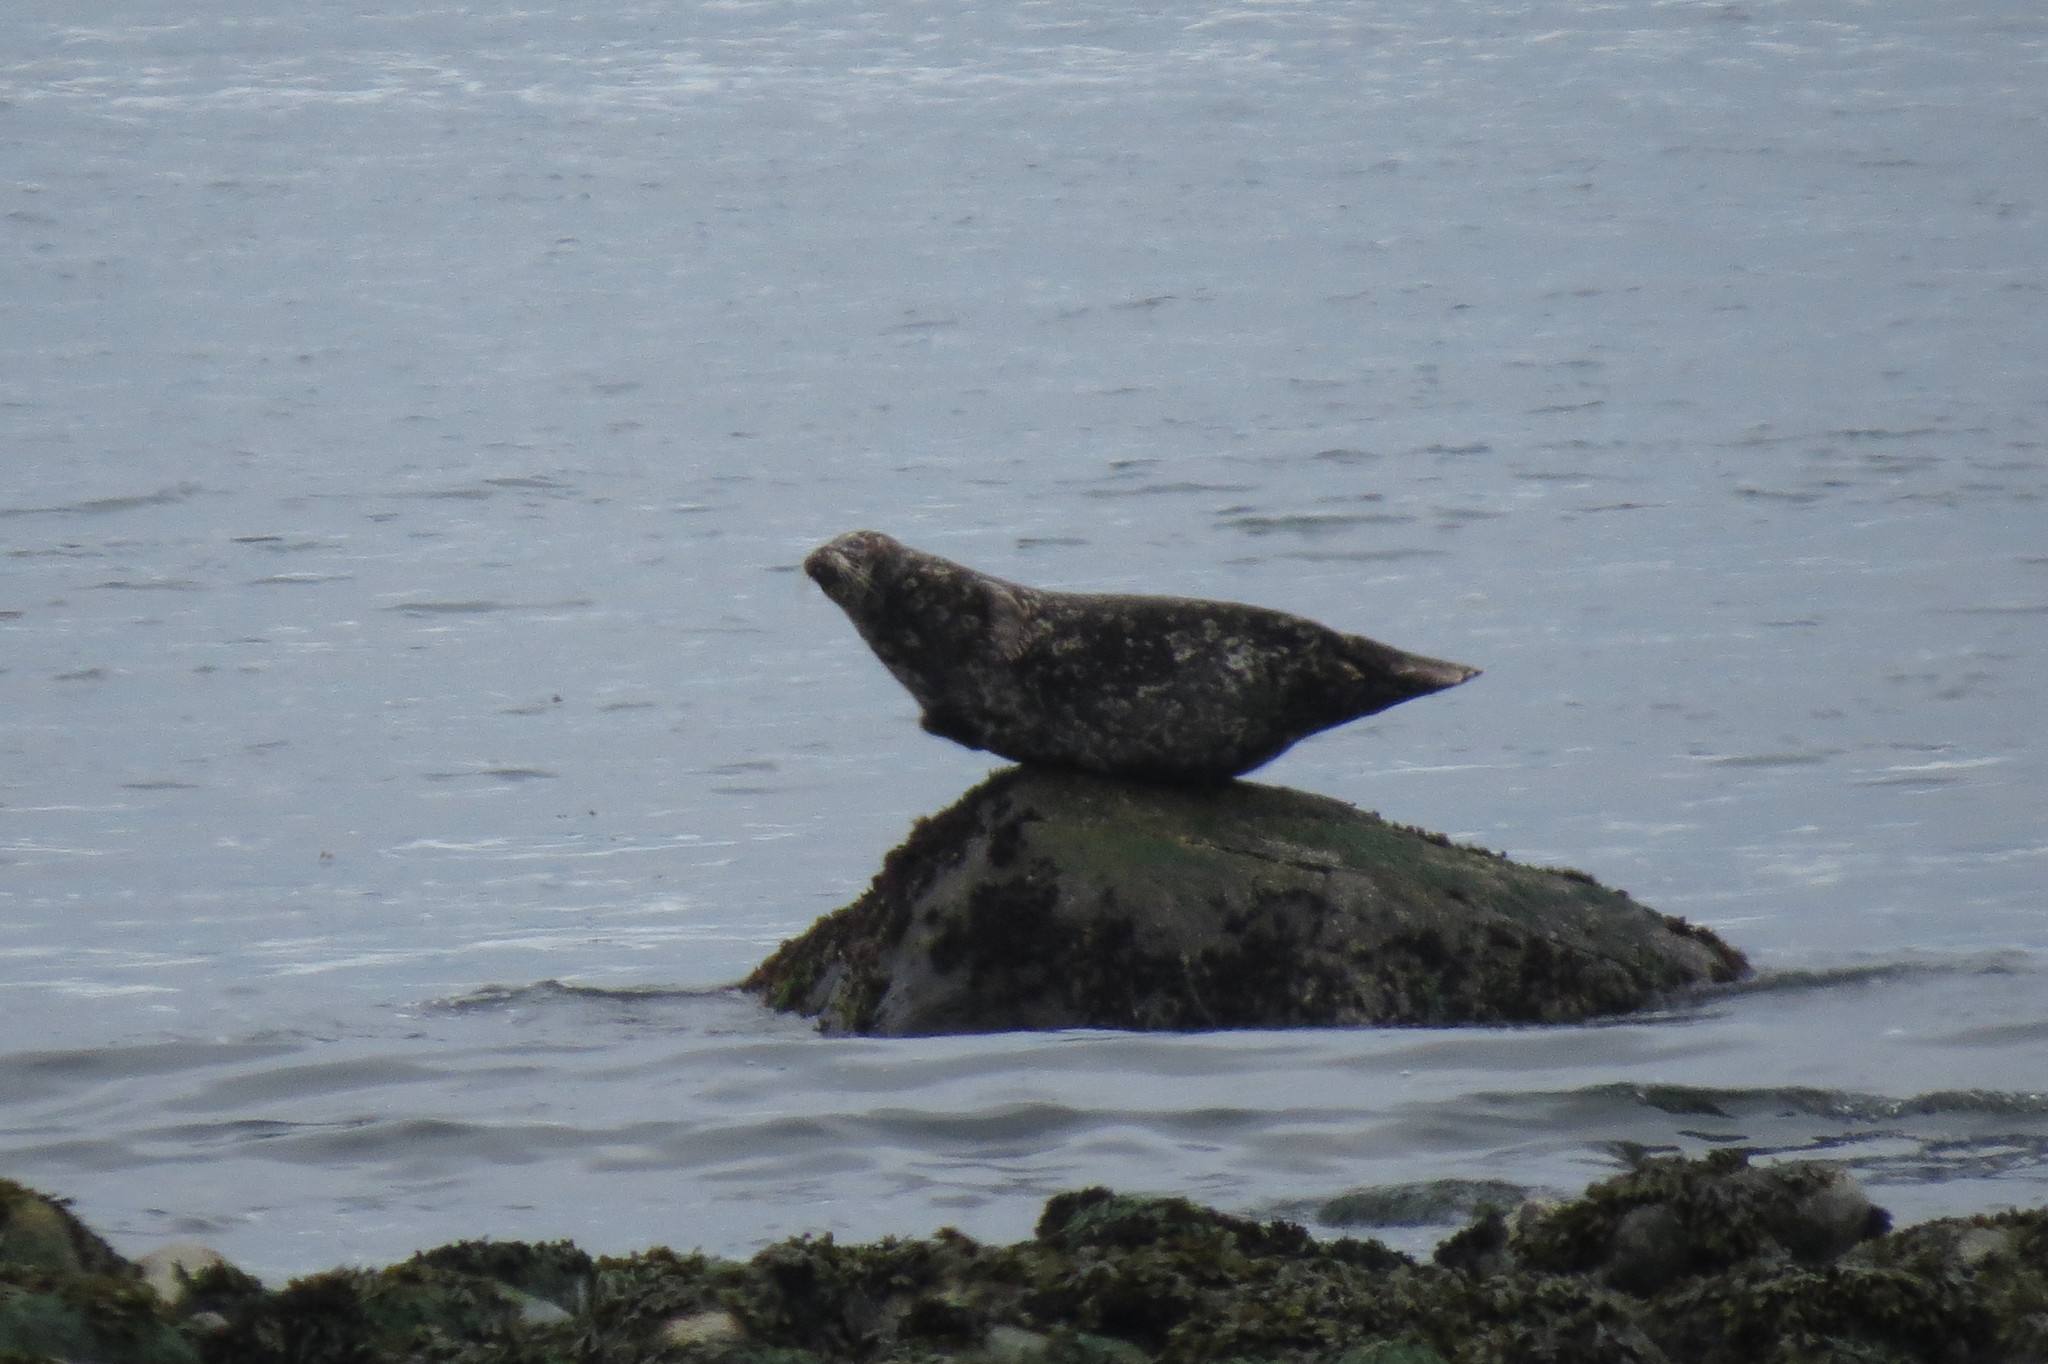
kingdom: Animalia
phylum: Chordata
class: Mammalia
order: Carnivora
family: Phocidae
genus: Phoca
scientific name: Phoca vitulina
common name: Harbor seal
